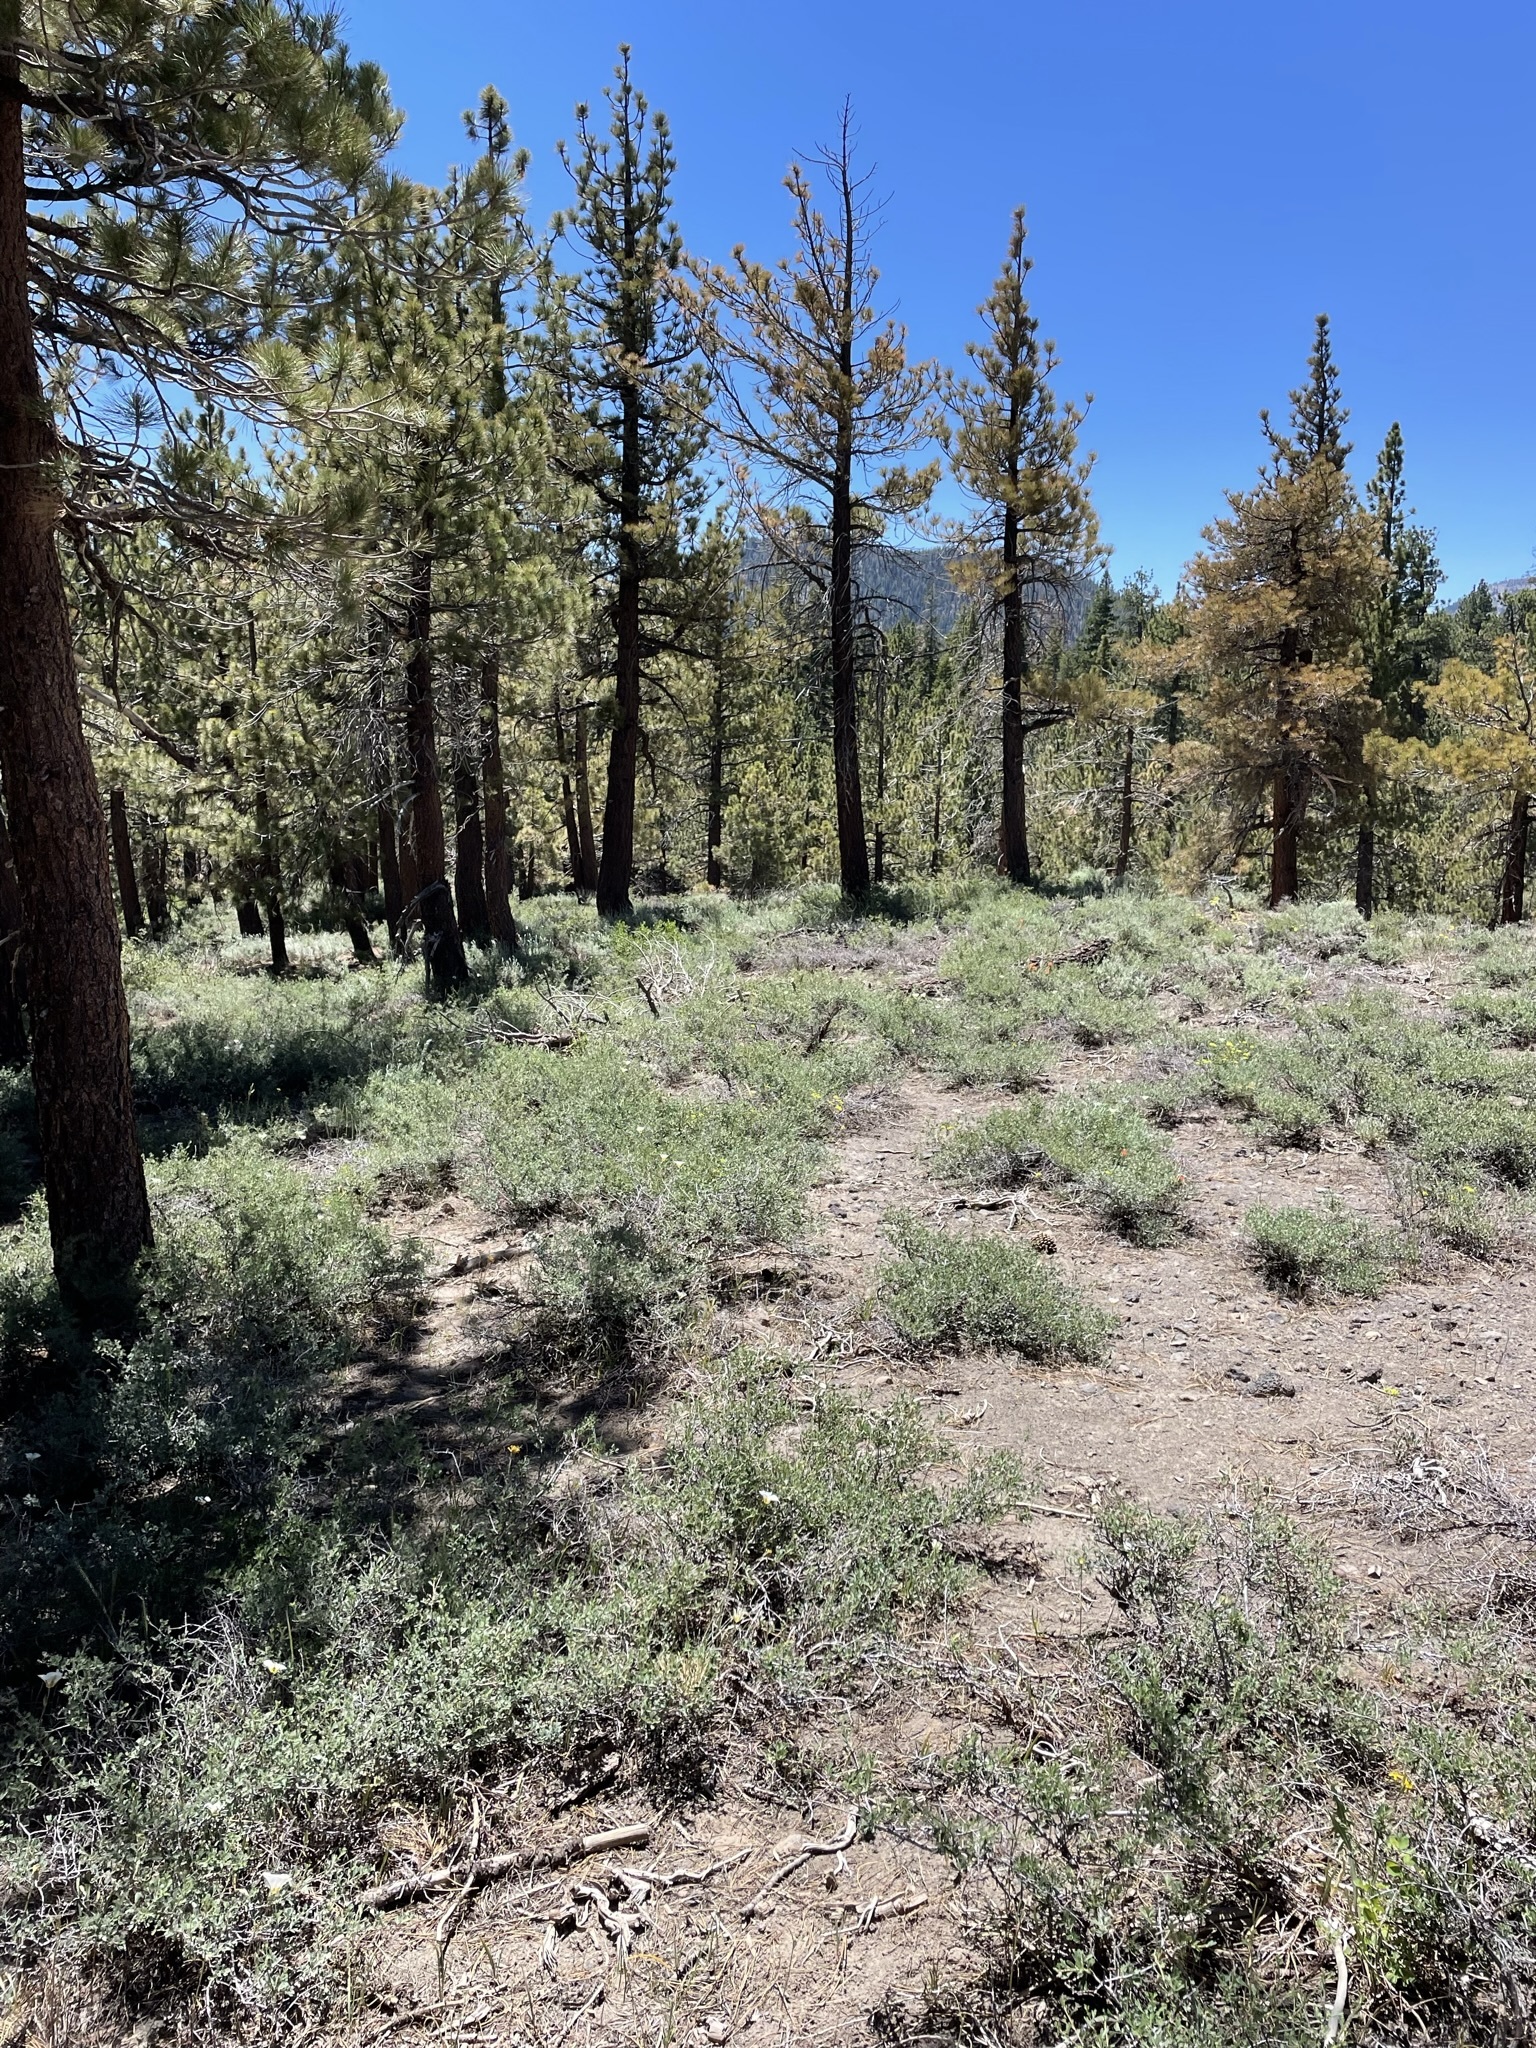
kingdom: Plantae
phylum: Tracheophyta
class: Liliopsida
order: Liliales
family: Liliaceae
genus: Calochortus
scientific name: Calochortus leichtlinii
